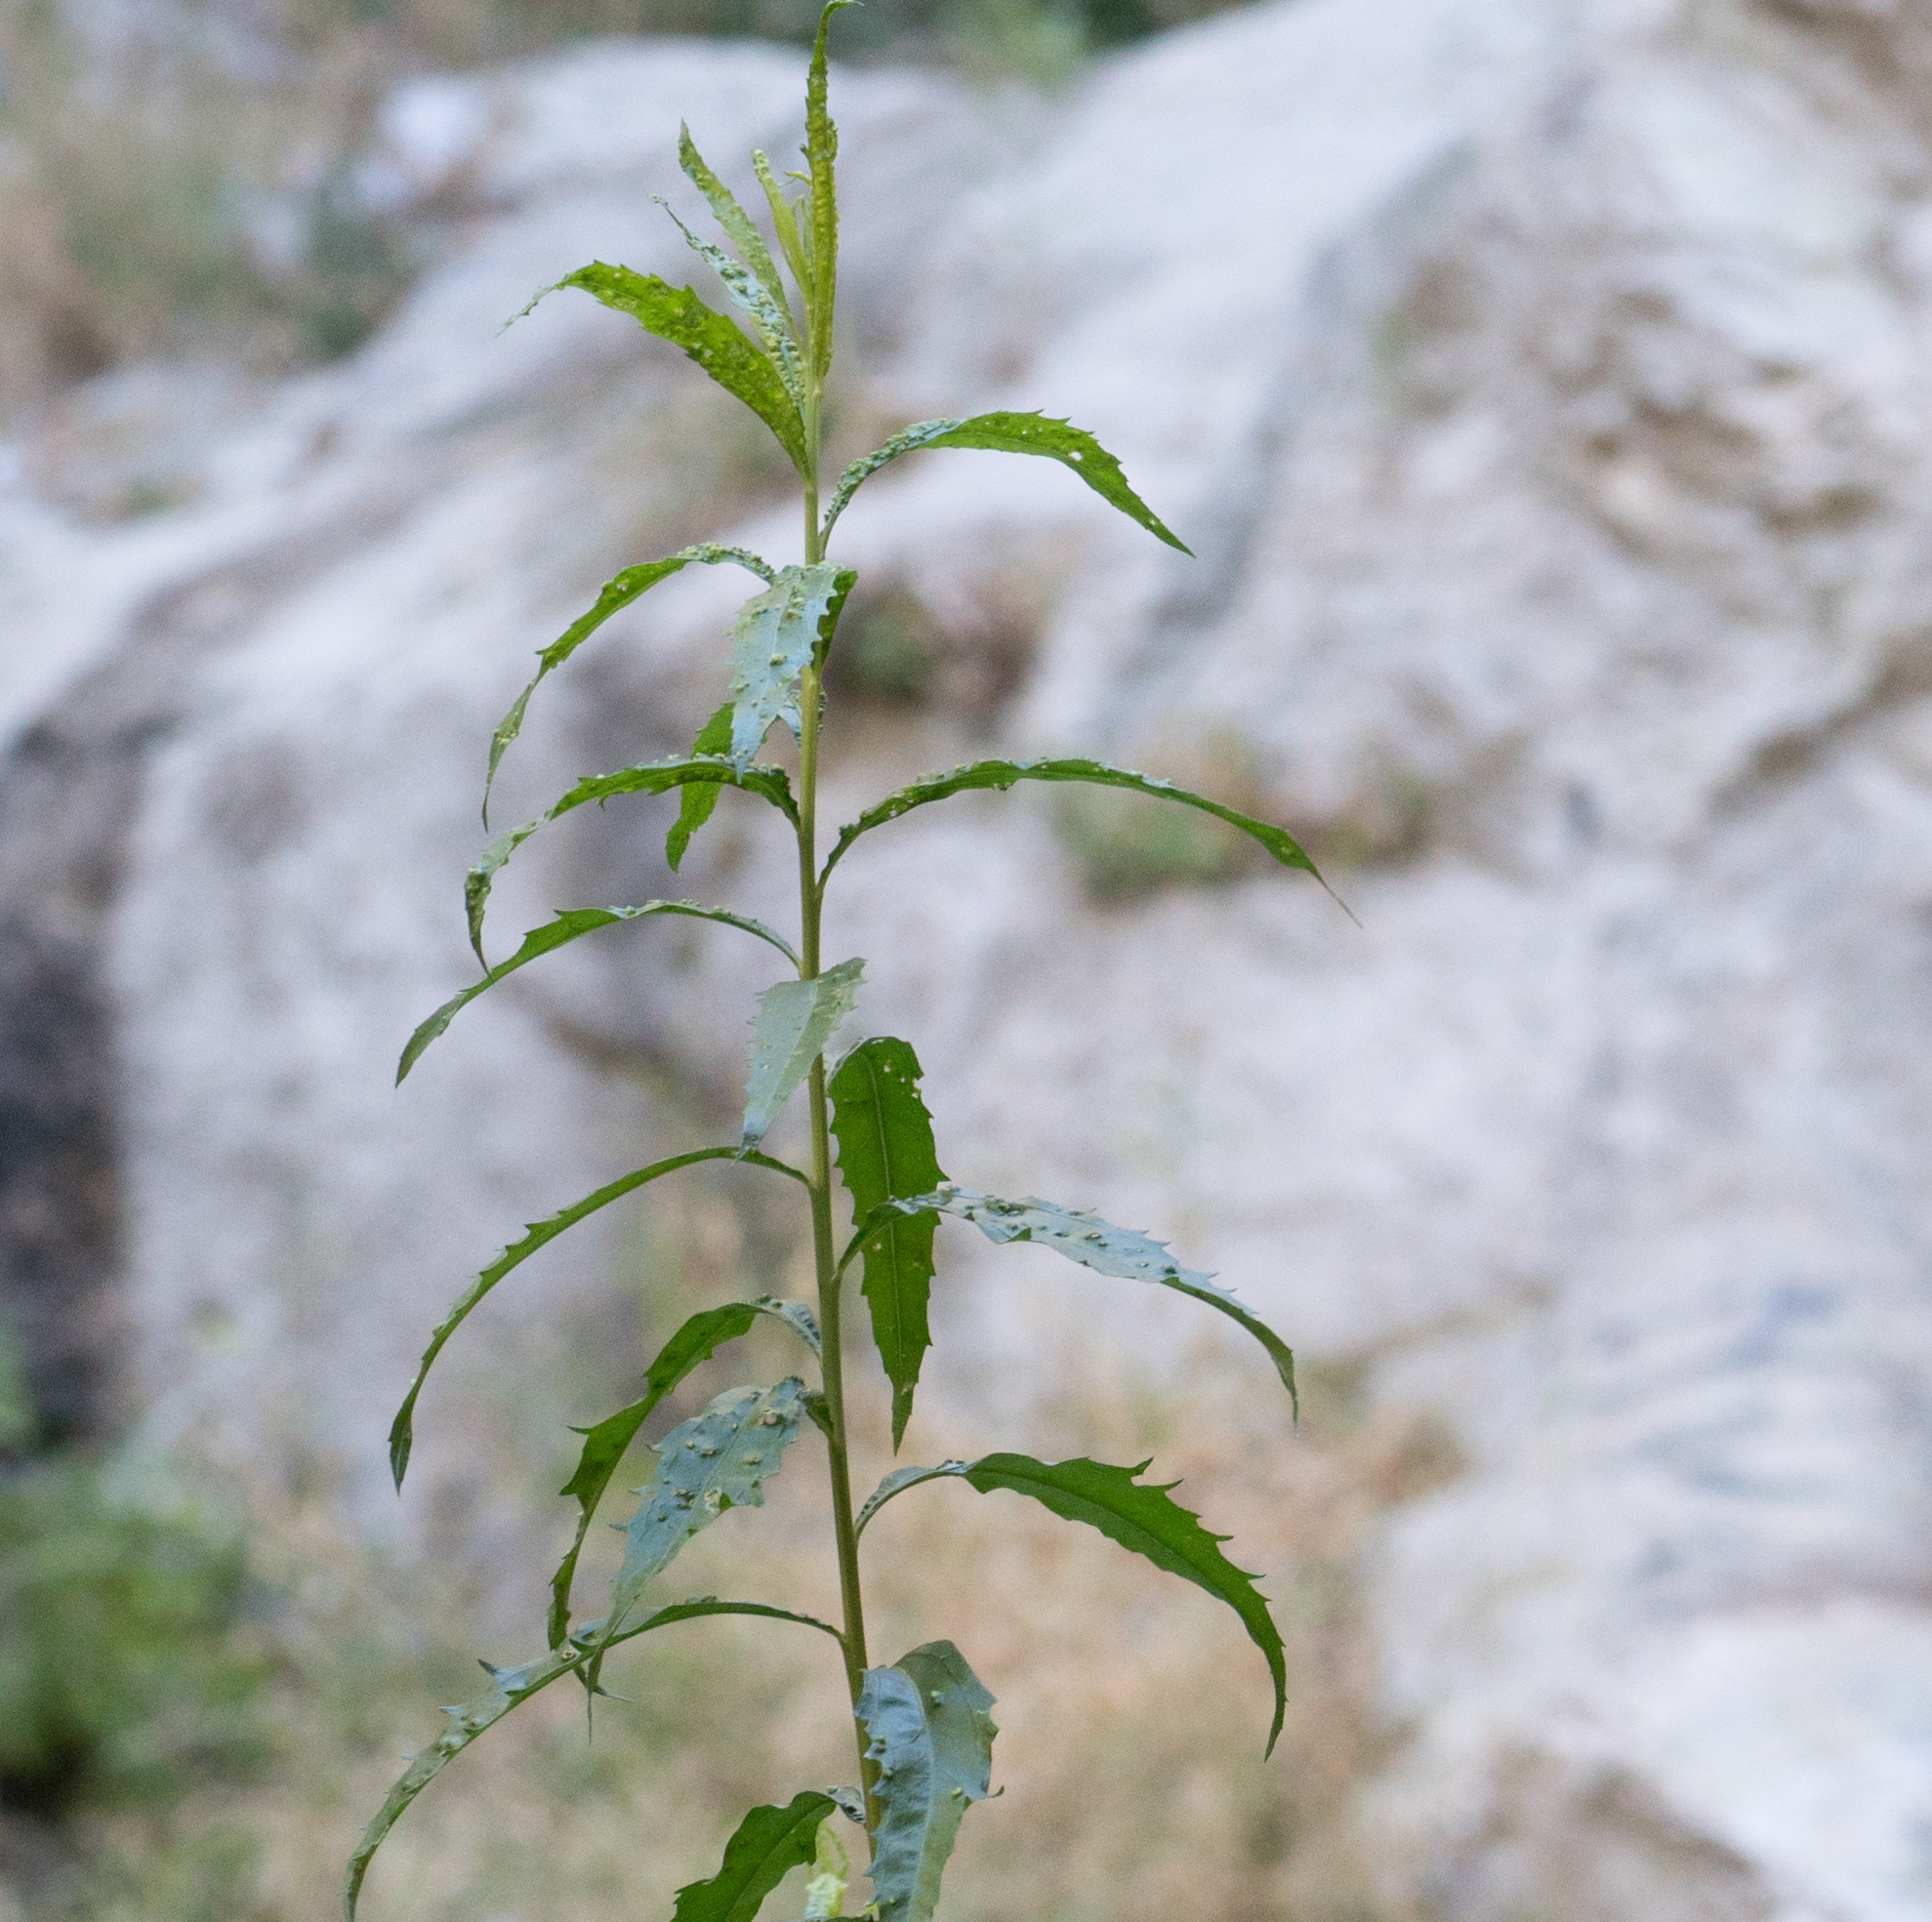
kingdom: Animalia
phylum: Arthropoda
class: Arachnida
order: Trombidiformes
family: Eriophyidae
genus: Aceria
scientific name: Aceria
